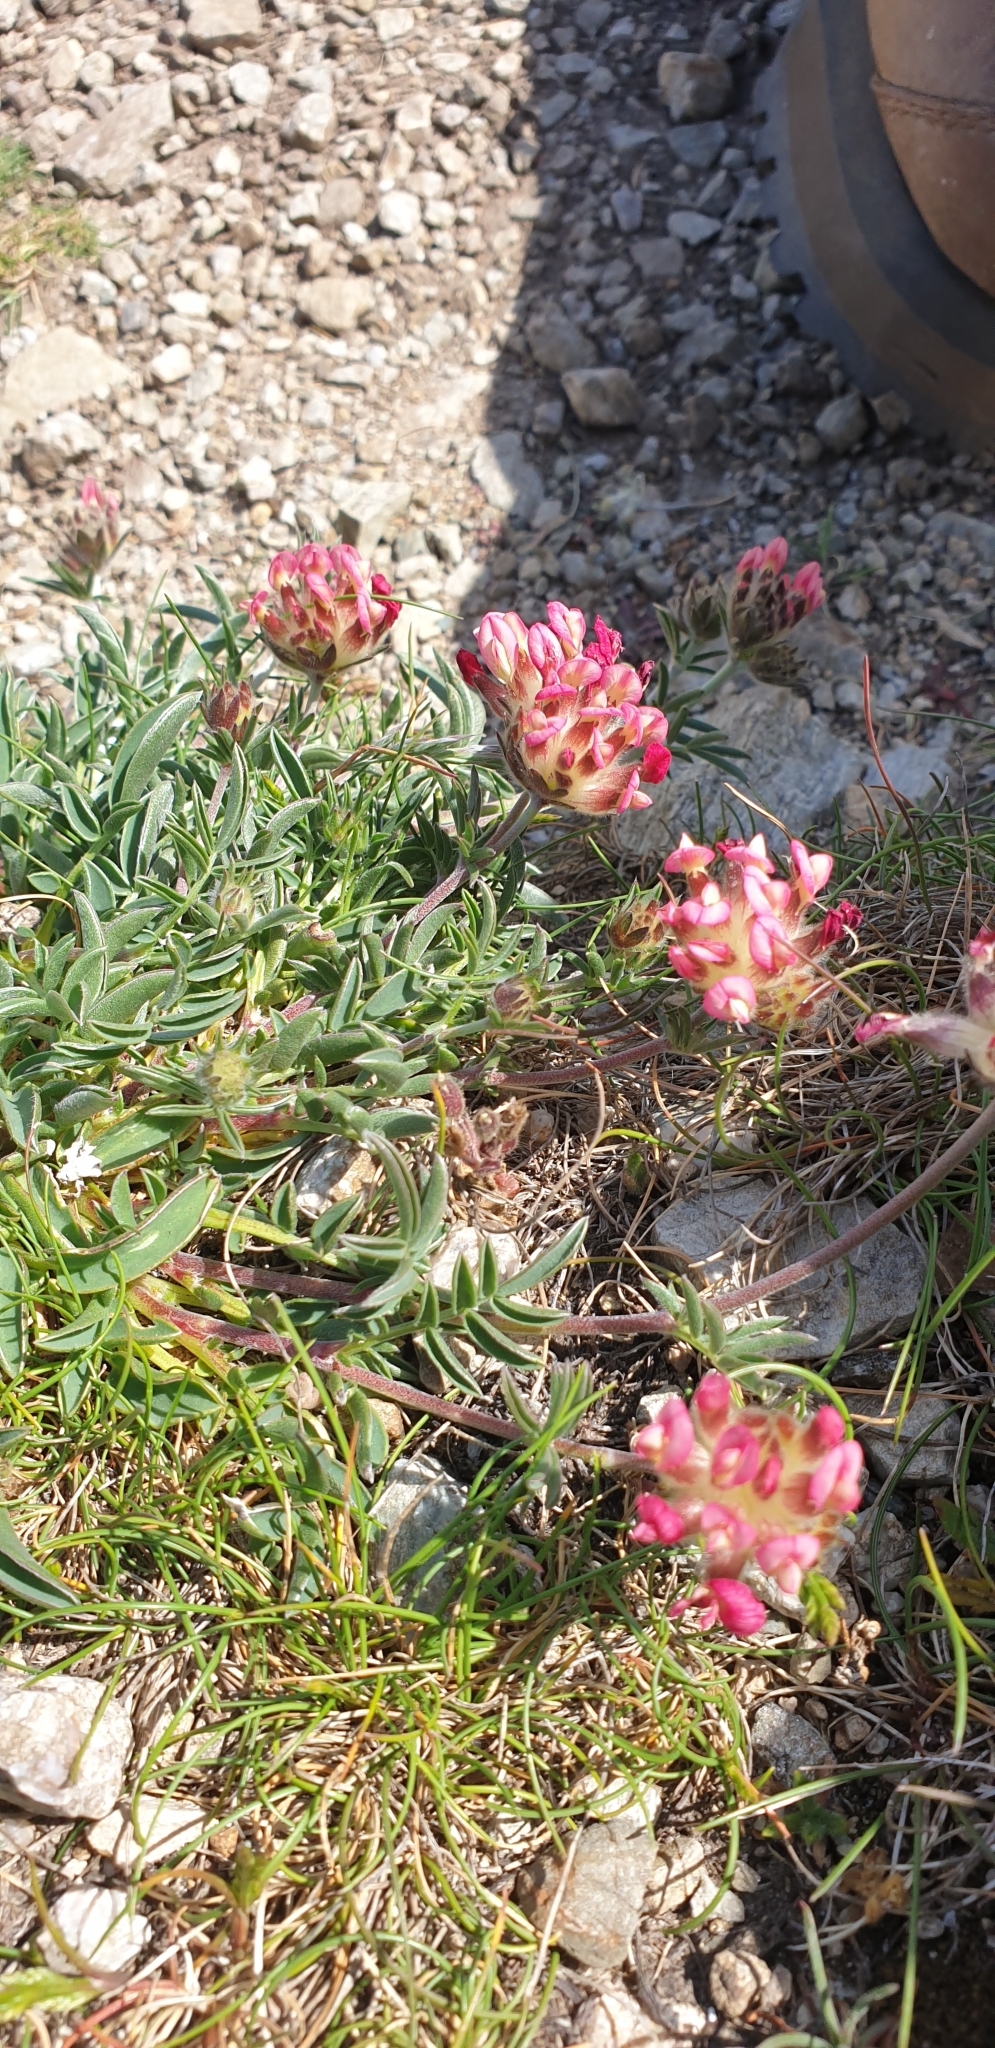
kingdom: Plantae
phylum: Tracheophyta
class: Magnoliopsida
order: Fabales
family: Fabaceae
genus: Anthyllis
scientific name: Anthyllis vulneraria
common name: Kidney vetch
